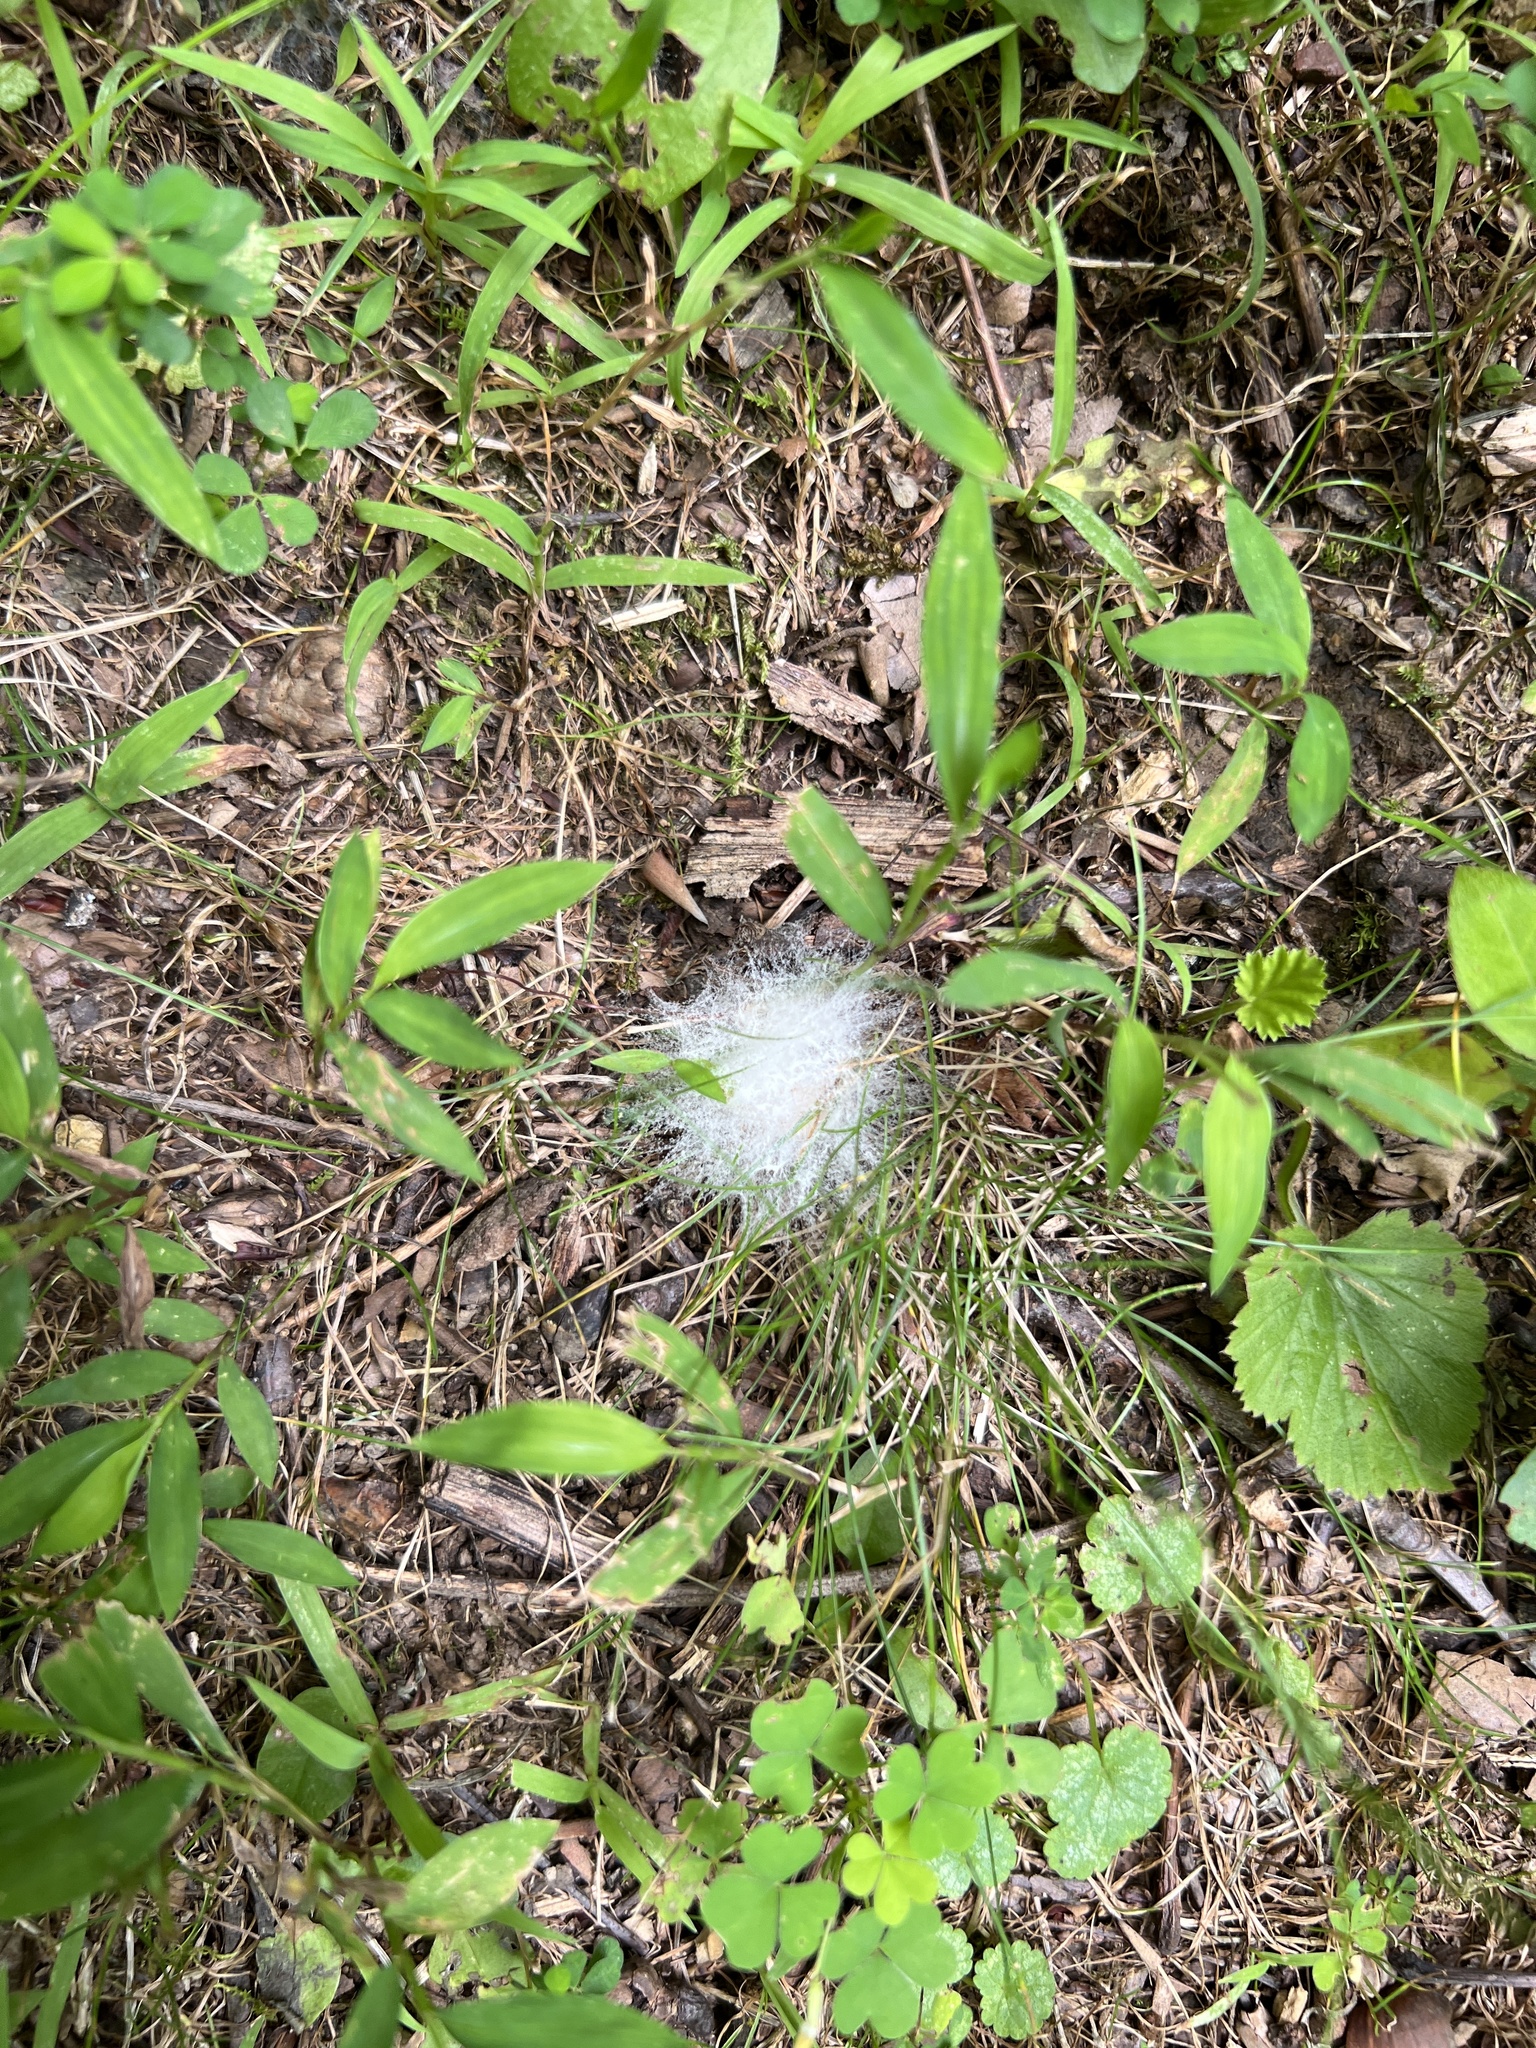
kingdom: Fungi
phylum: Mucoromycota
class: Mucoromycetes
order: Mucorales
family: Rhizopodaceae
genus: Syzygites
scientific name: Syzygites megalocarpus
